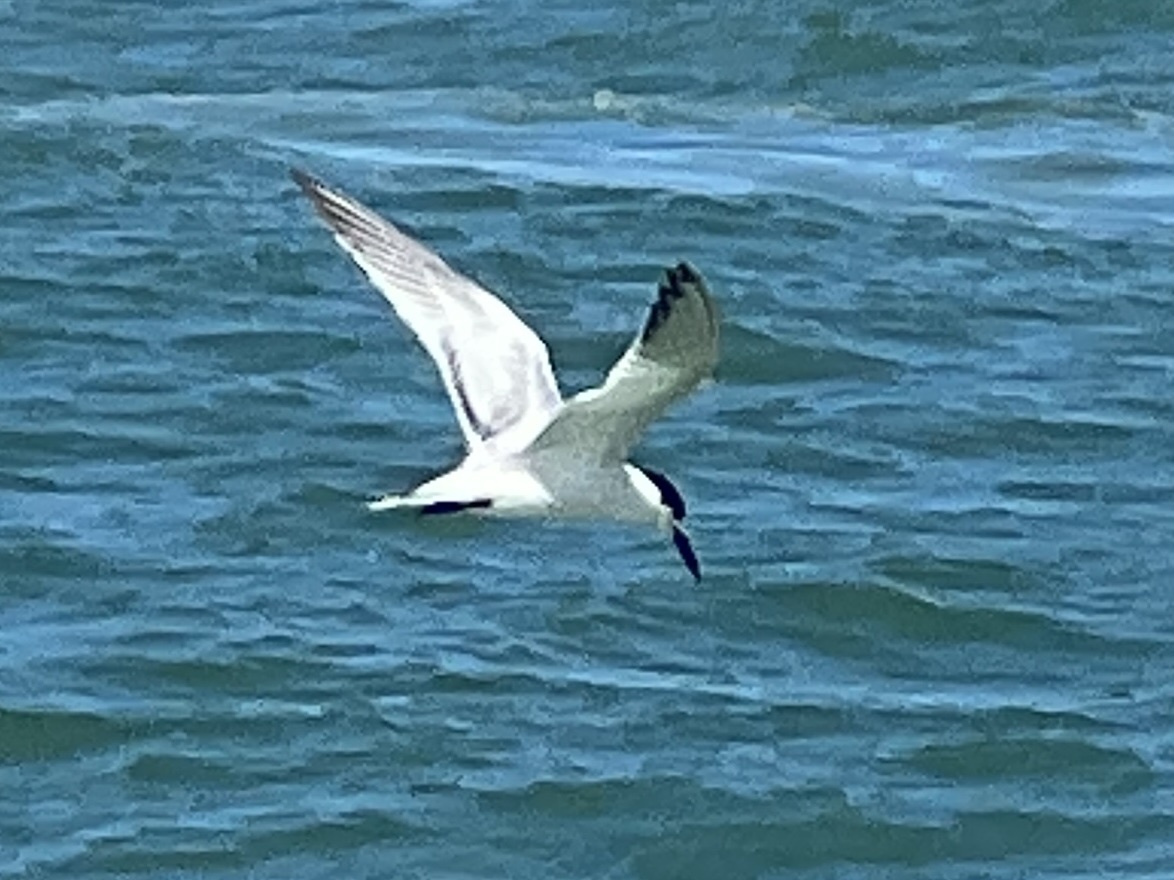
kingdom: Animalia
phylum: Chordata
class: Aves
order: Charadriiformes
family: Laridae
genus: Thalasseus
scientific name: Thalasseus sandvicensis
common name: Sandwich tern
